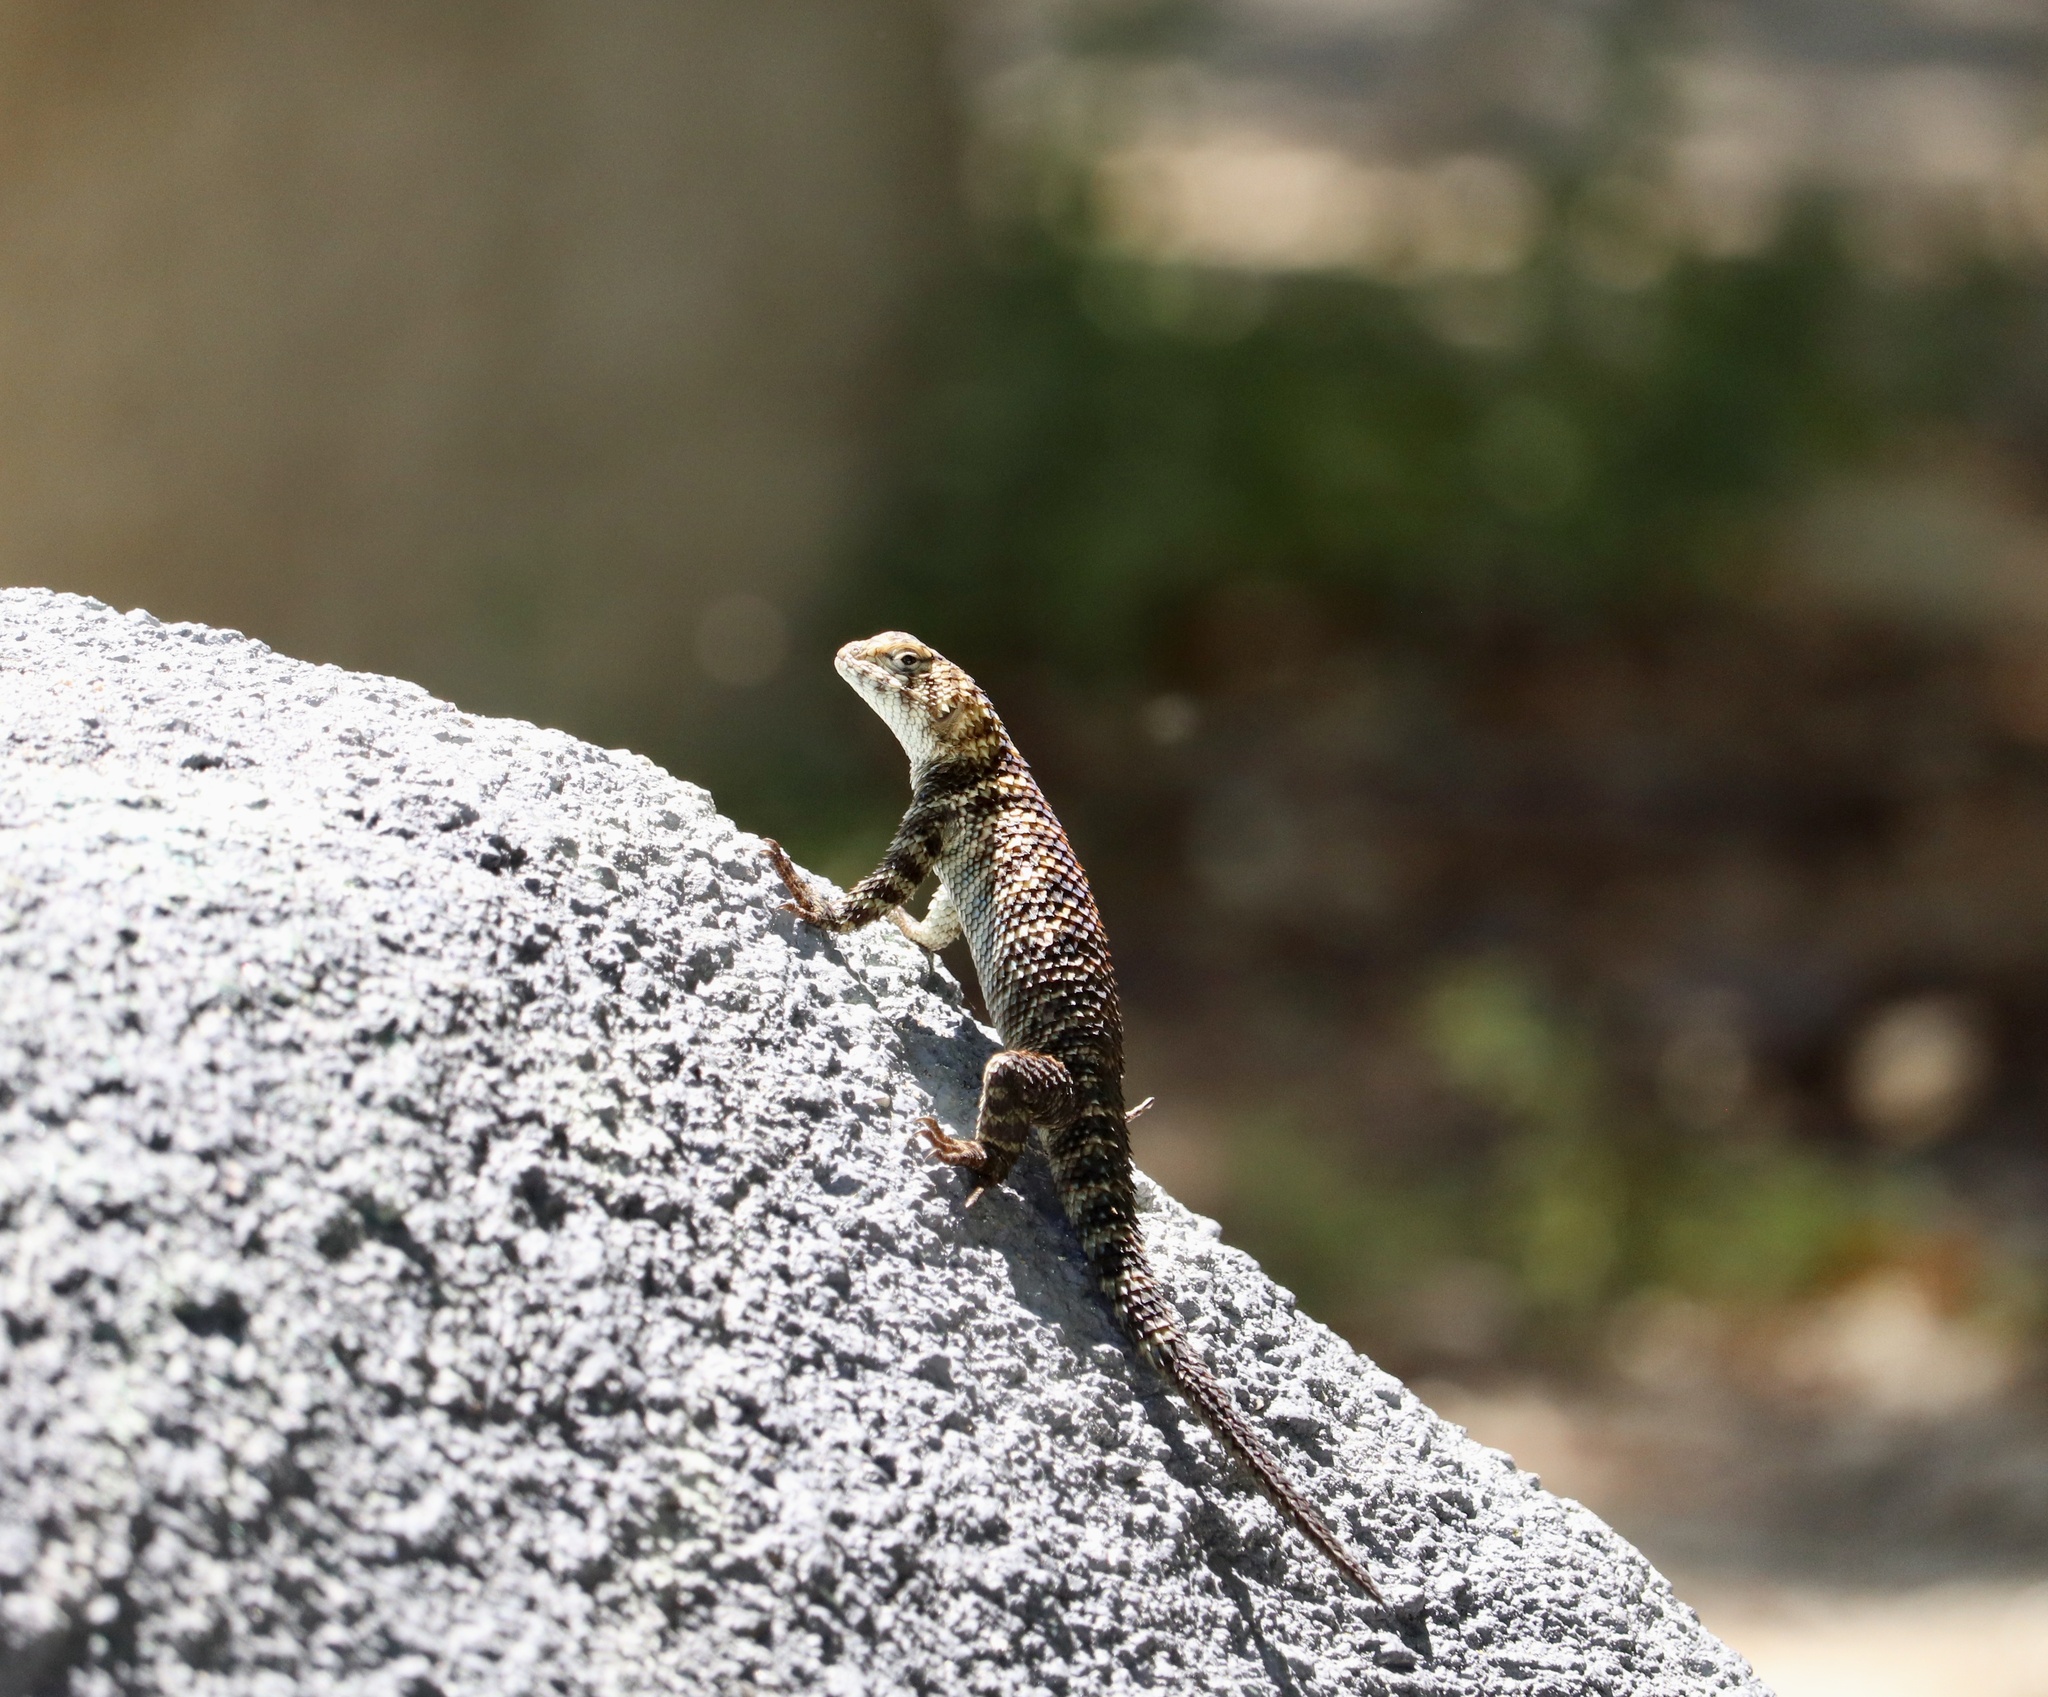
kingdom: Animalia
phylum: Chordata
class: Squamata
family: Phrynosomatidae
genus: Sceloporus
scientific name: Sceloporus orcutti
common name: Granite spiny lizard
